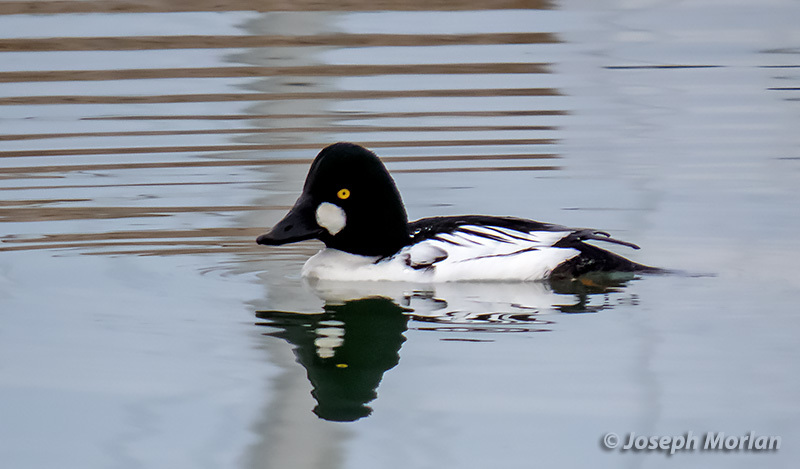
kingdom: Animalia
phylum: Chordata
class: Aves
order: Anseriformes
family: Anatidae
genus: Bucephala
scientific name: Bucephala clangula
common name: Common goldeneye
